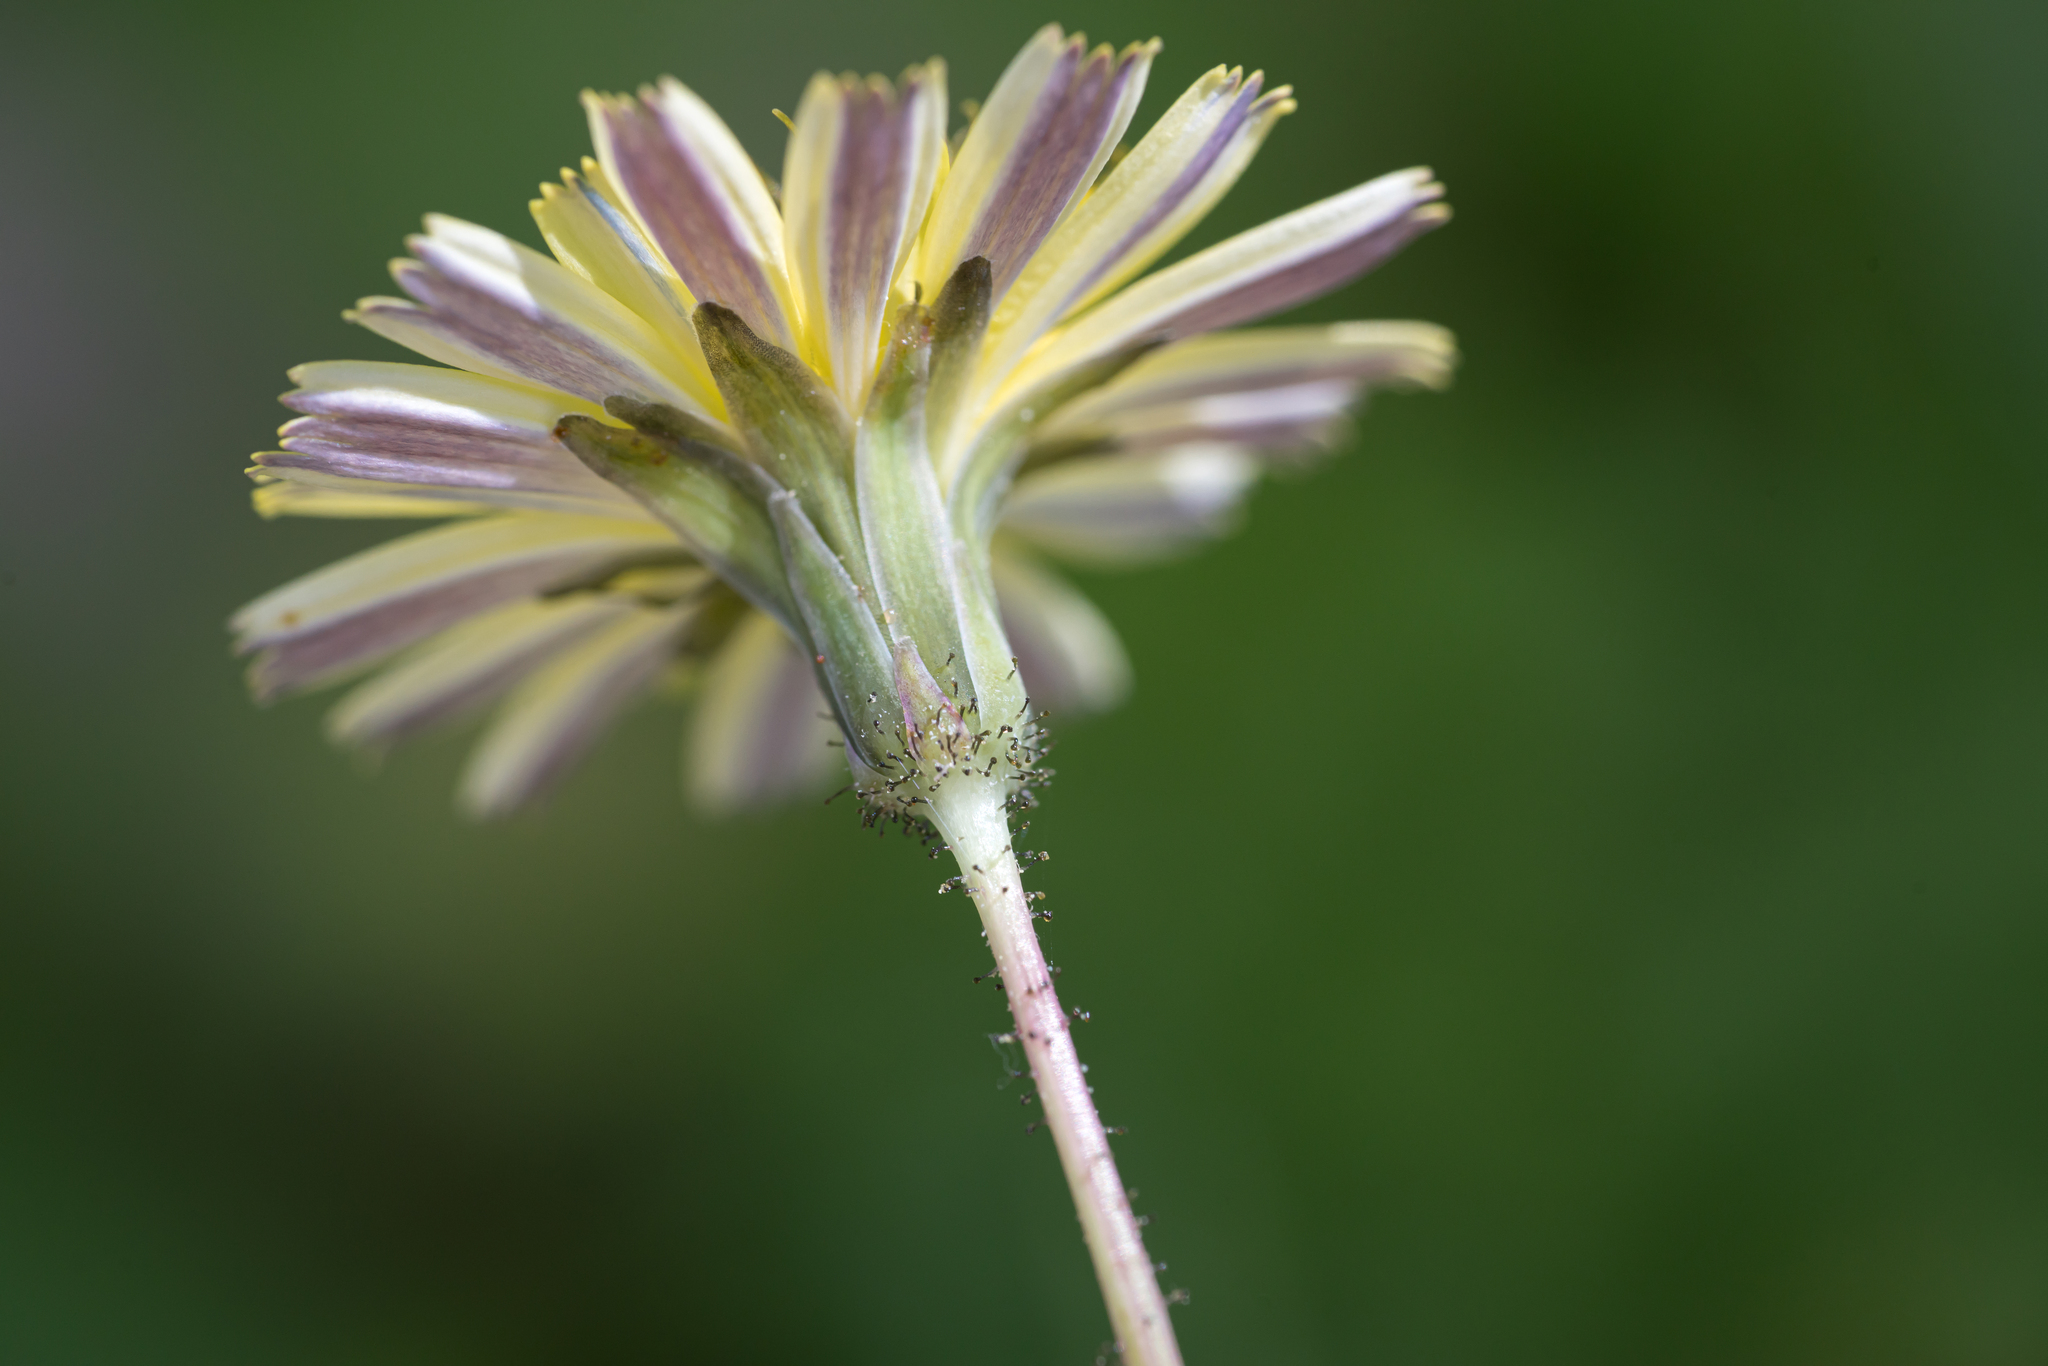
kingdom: Plantae
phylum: Tracheophyta
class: Magnoliopsida
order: Asterales
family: Asteraceae
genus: Aetheorhiza
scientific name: Aetheorhiza bulbosa
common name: Tuberous hawk's-beard
